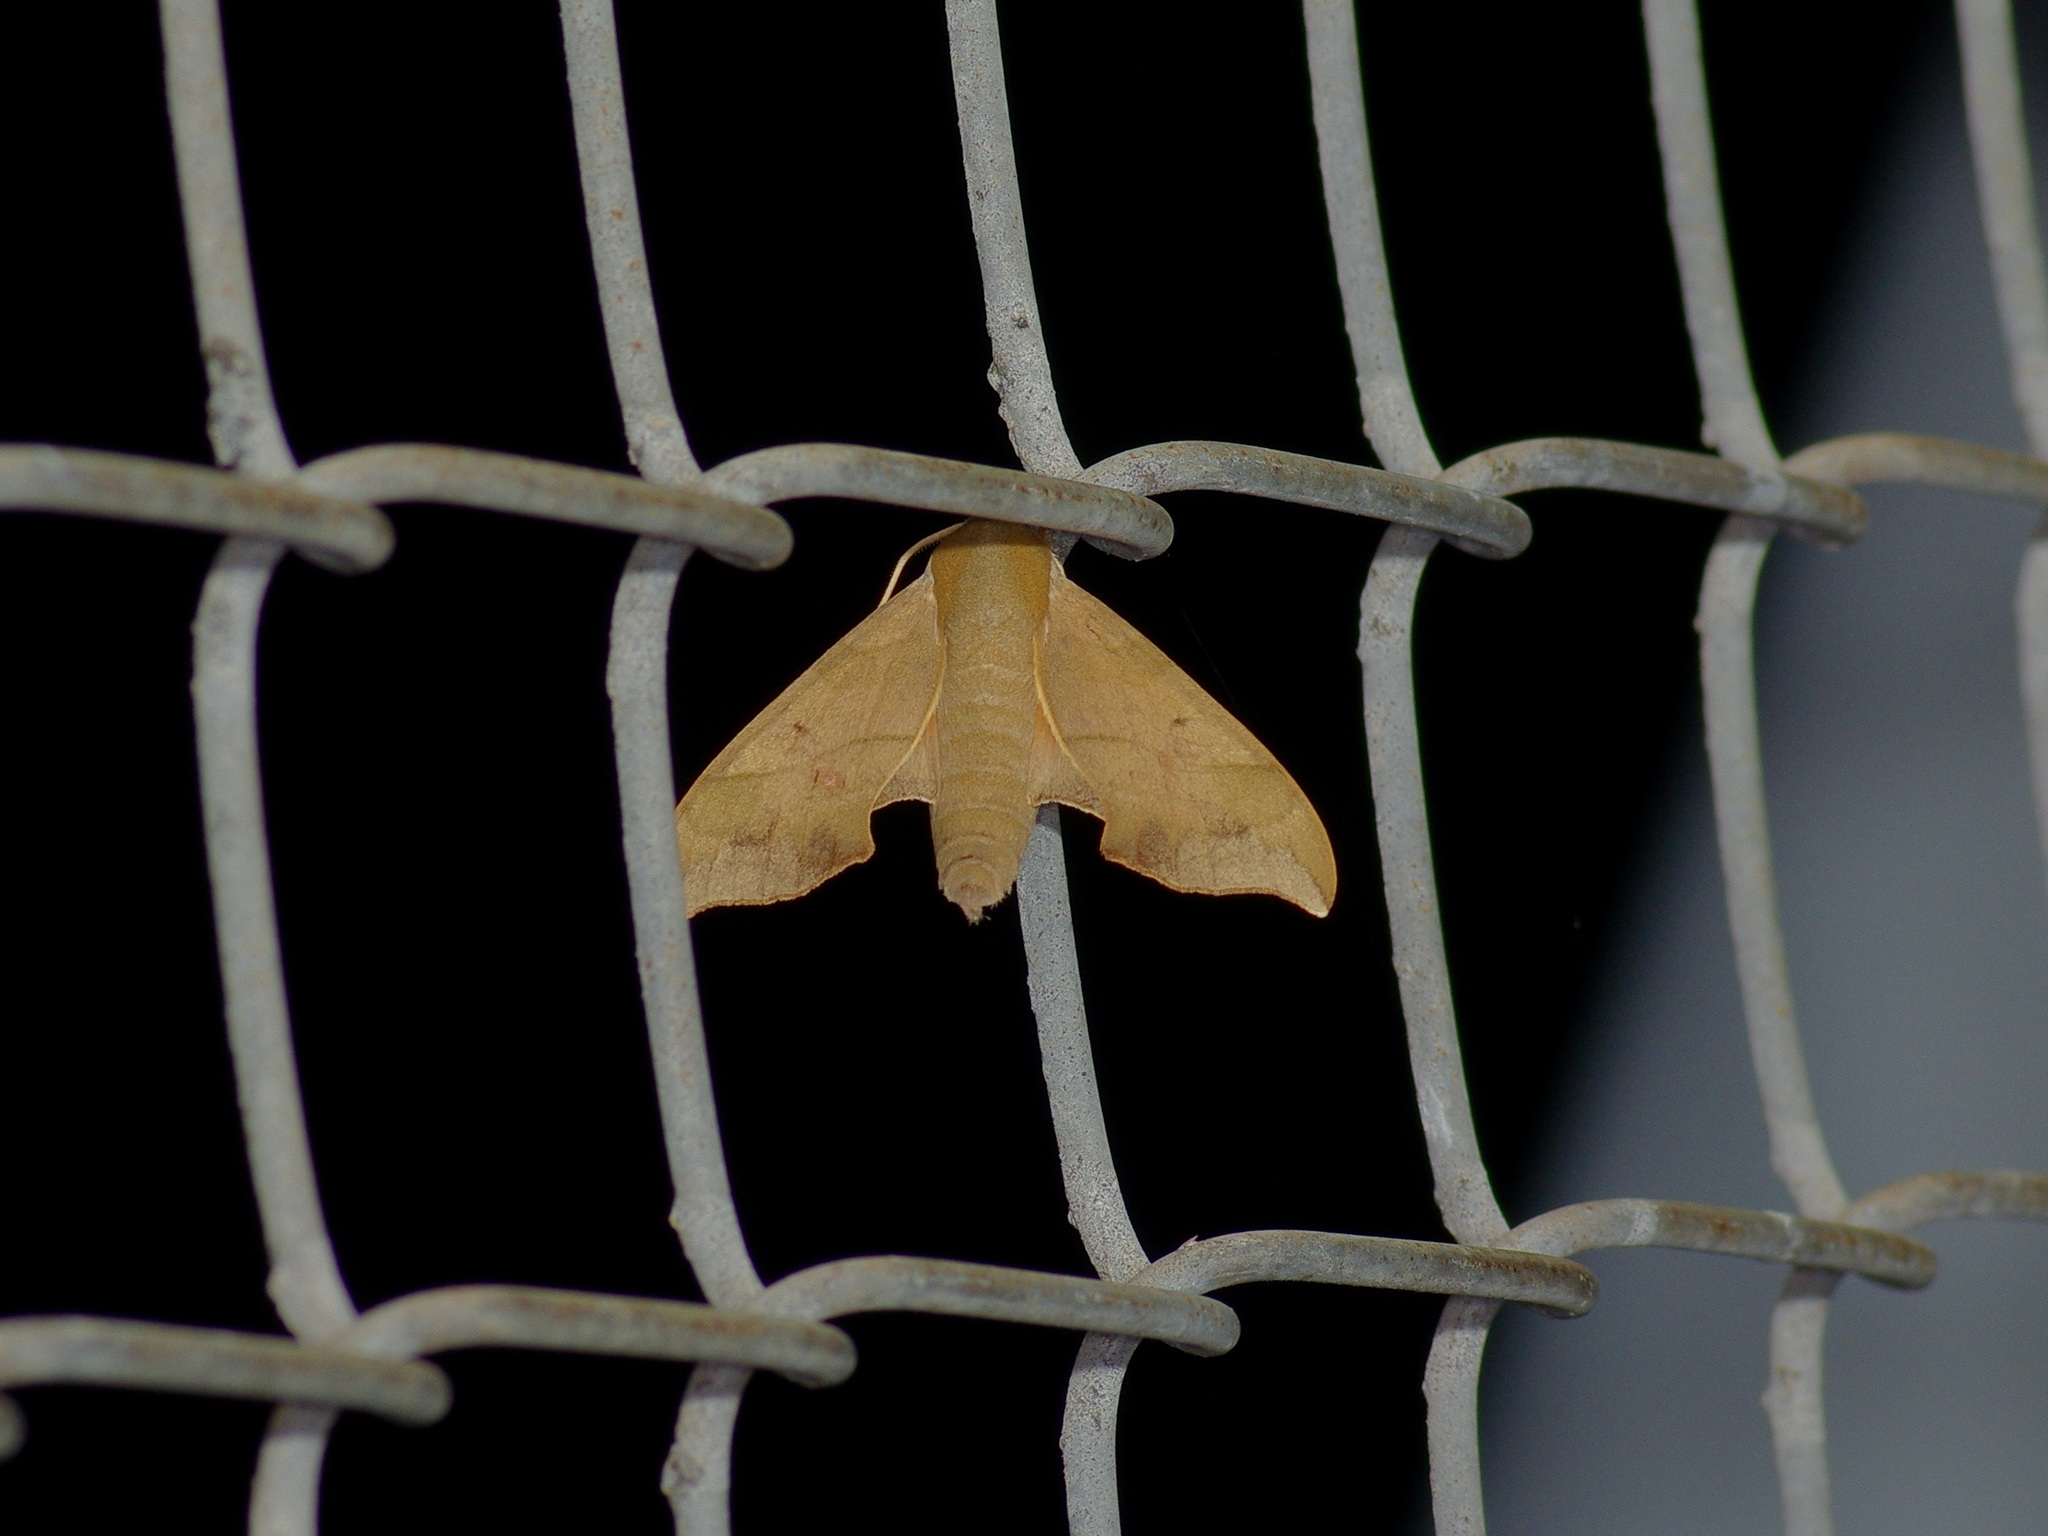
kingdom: Animalia
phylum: Arthropoda
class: Insecta
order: Lepidoptera
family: Sphingidae
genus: Darapsa
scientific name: Darapsa myron
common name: Hog sphinx
